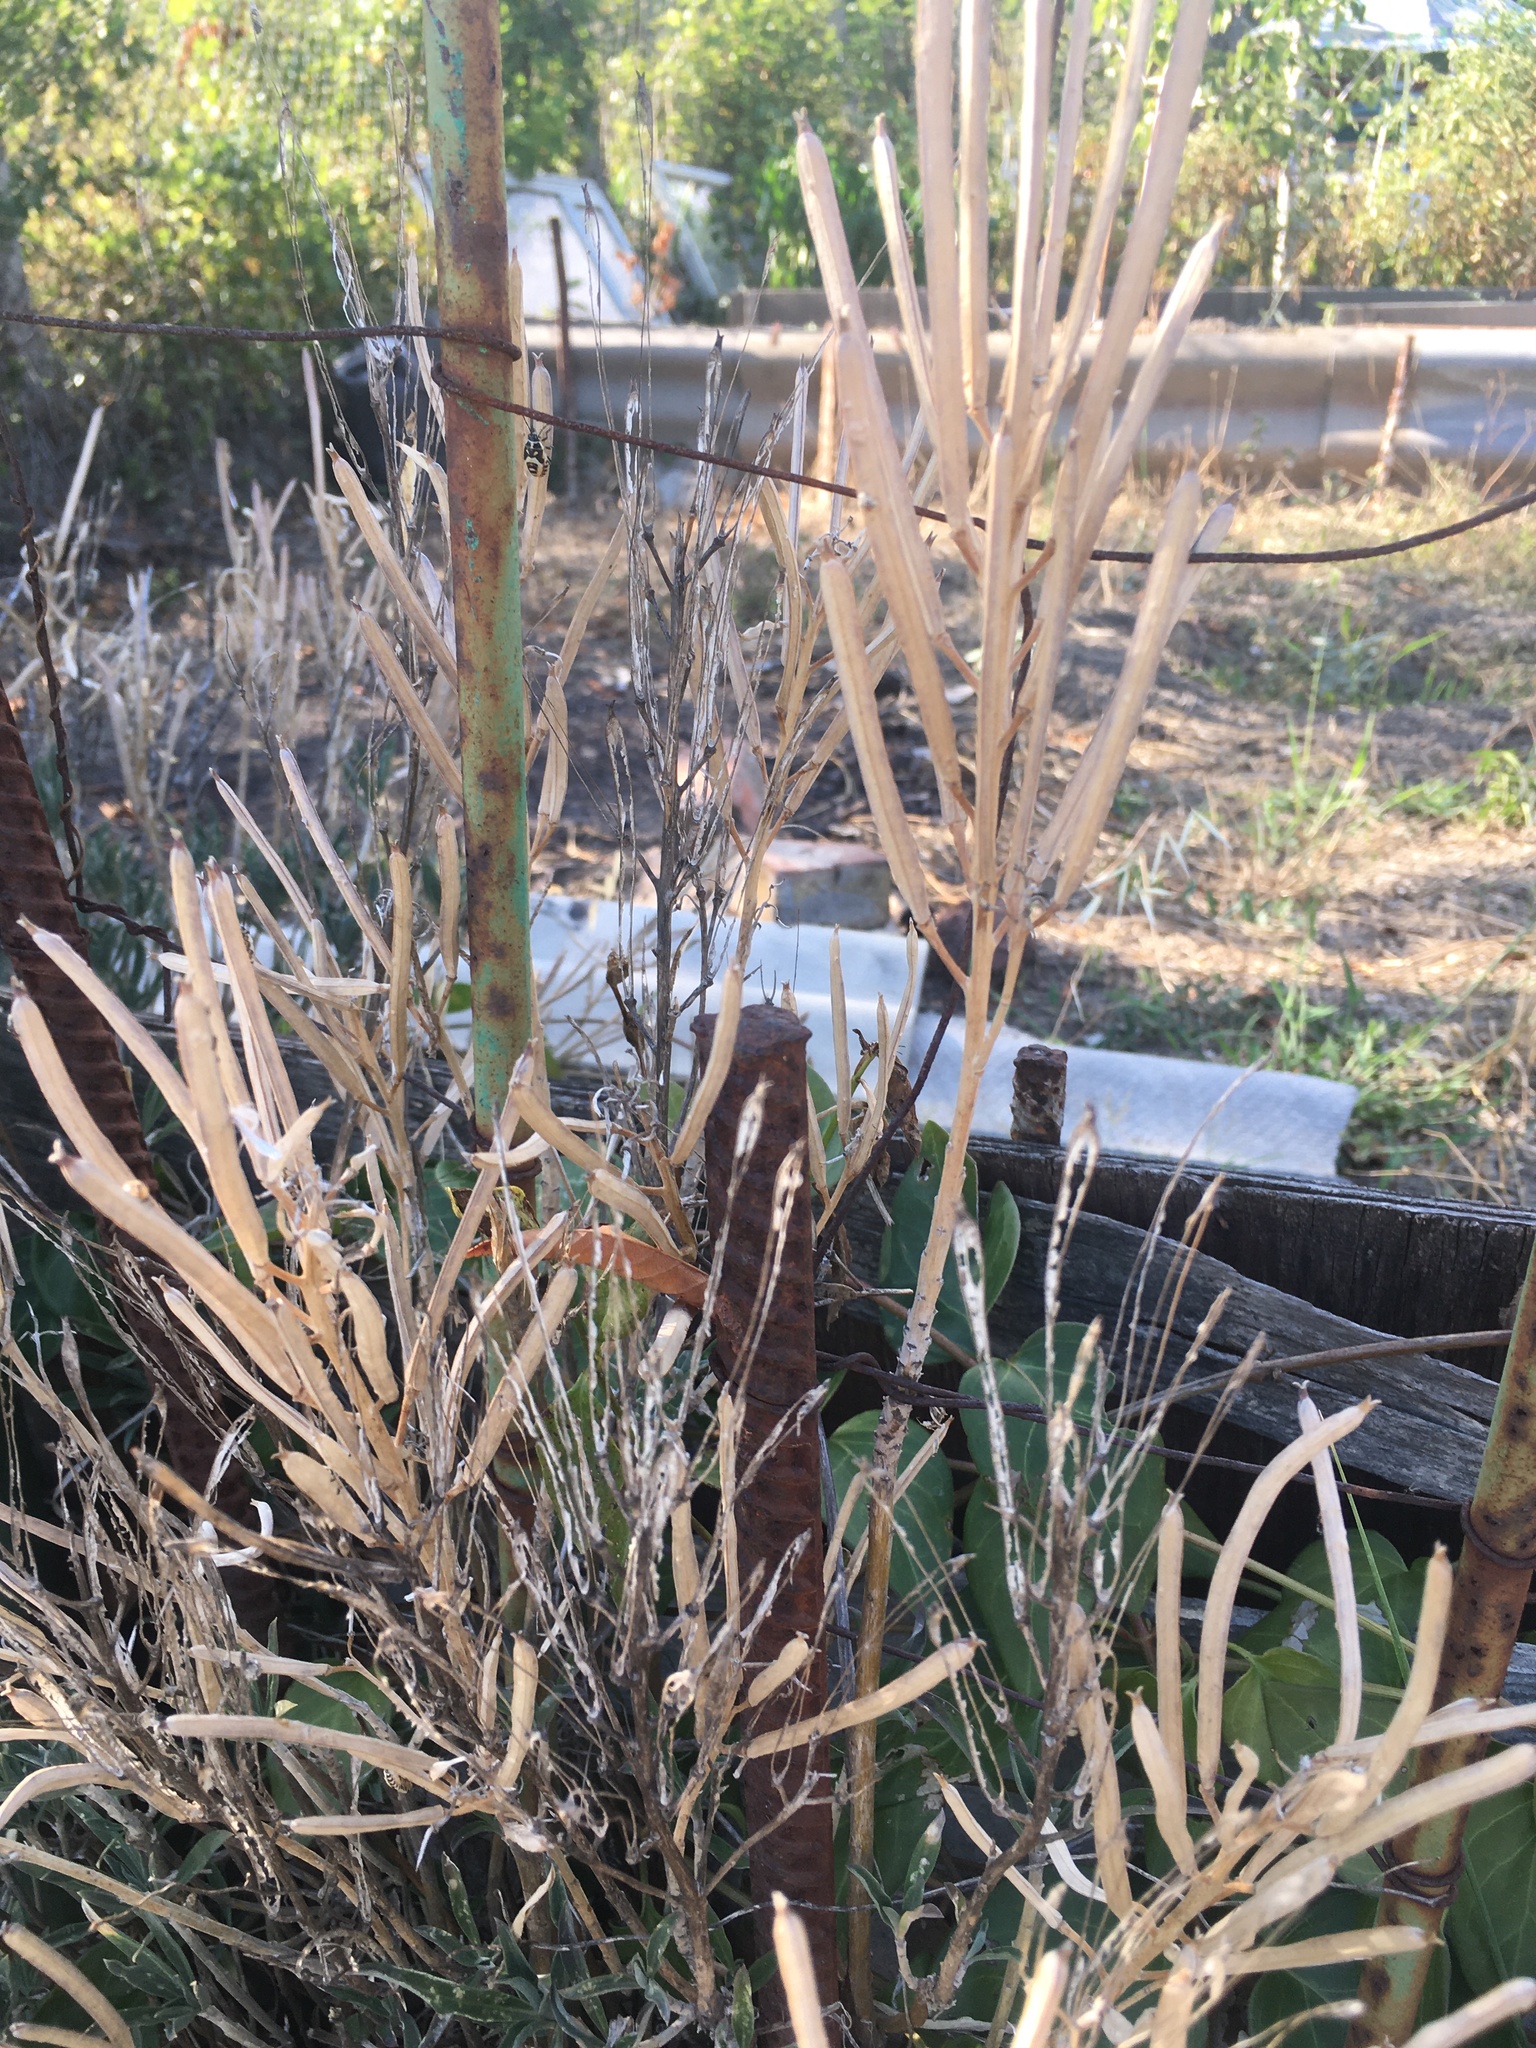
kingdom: Plantae
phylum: Tracheophyta
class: Magnoliopsida
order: Brassicales
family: Brassicaceae
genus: Erysimum
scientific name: Erysimum cheiri
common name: Wallflower
